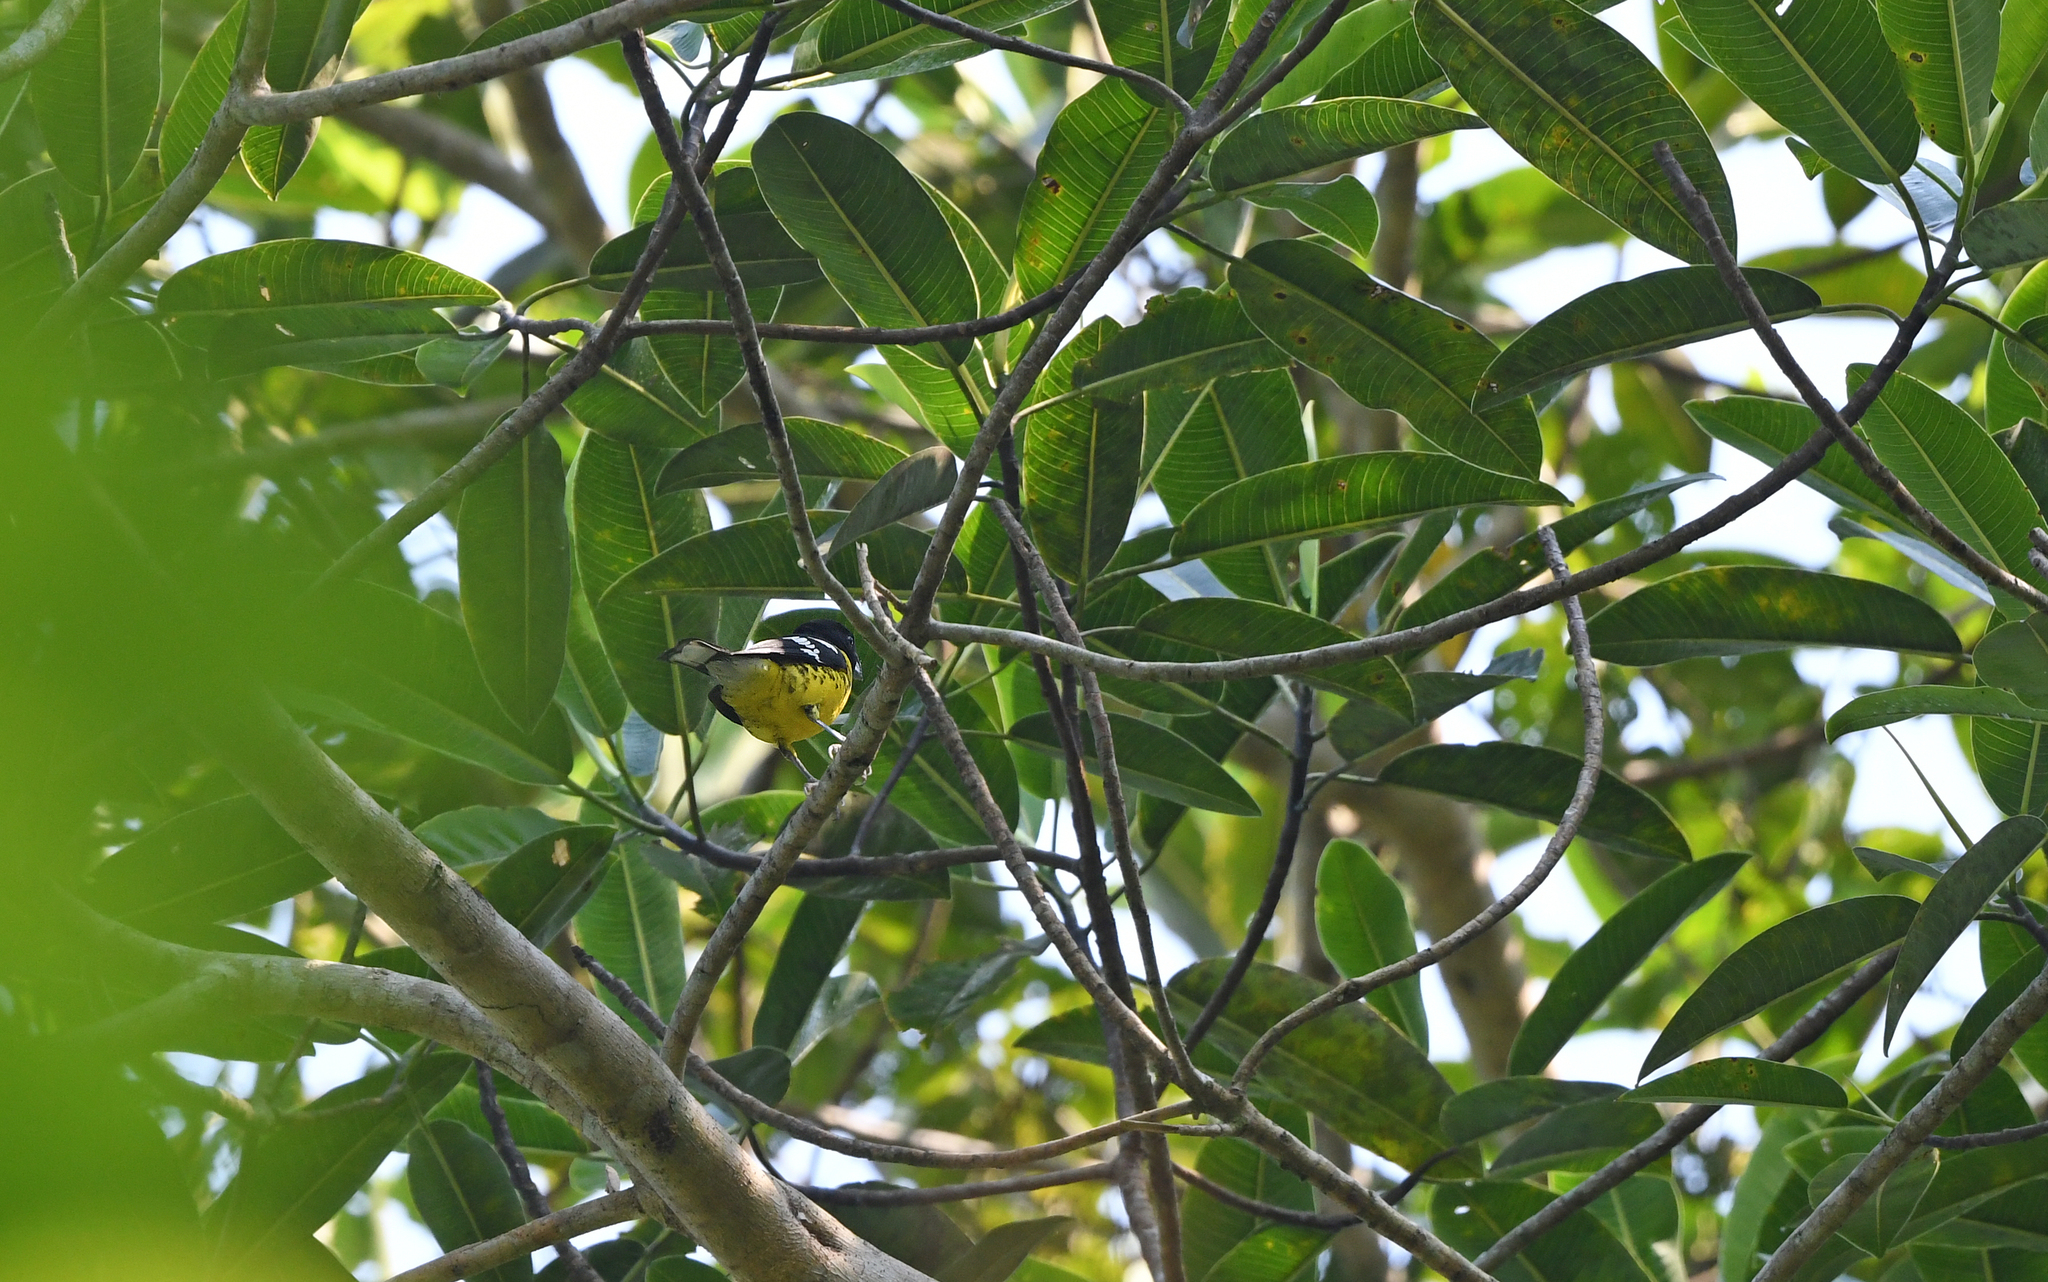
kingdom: Animalia
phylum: Chordata
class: Aves
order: Passeriformes
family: Cardinalidae
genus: Pheucticus
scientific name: Pheucticus aureoventris
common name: Black-backed grosbeak
